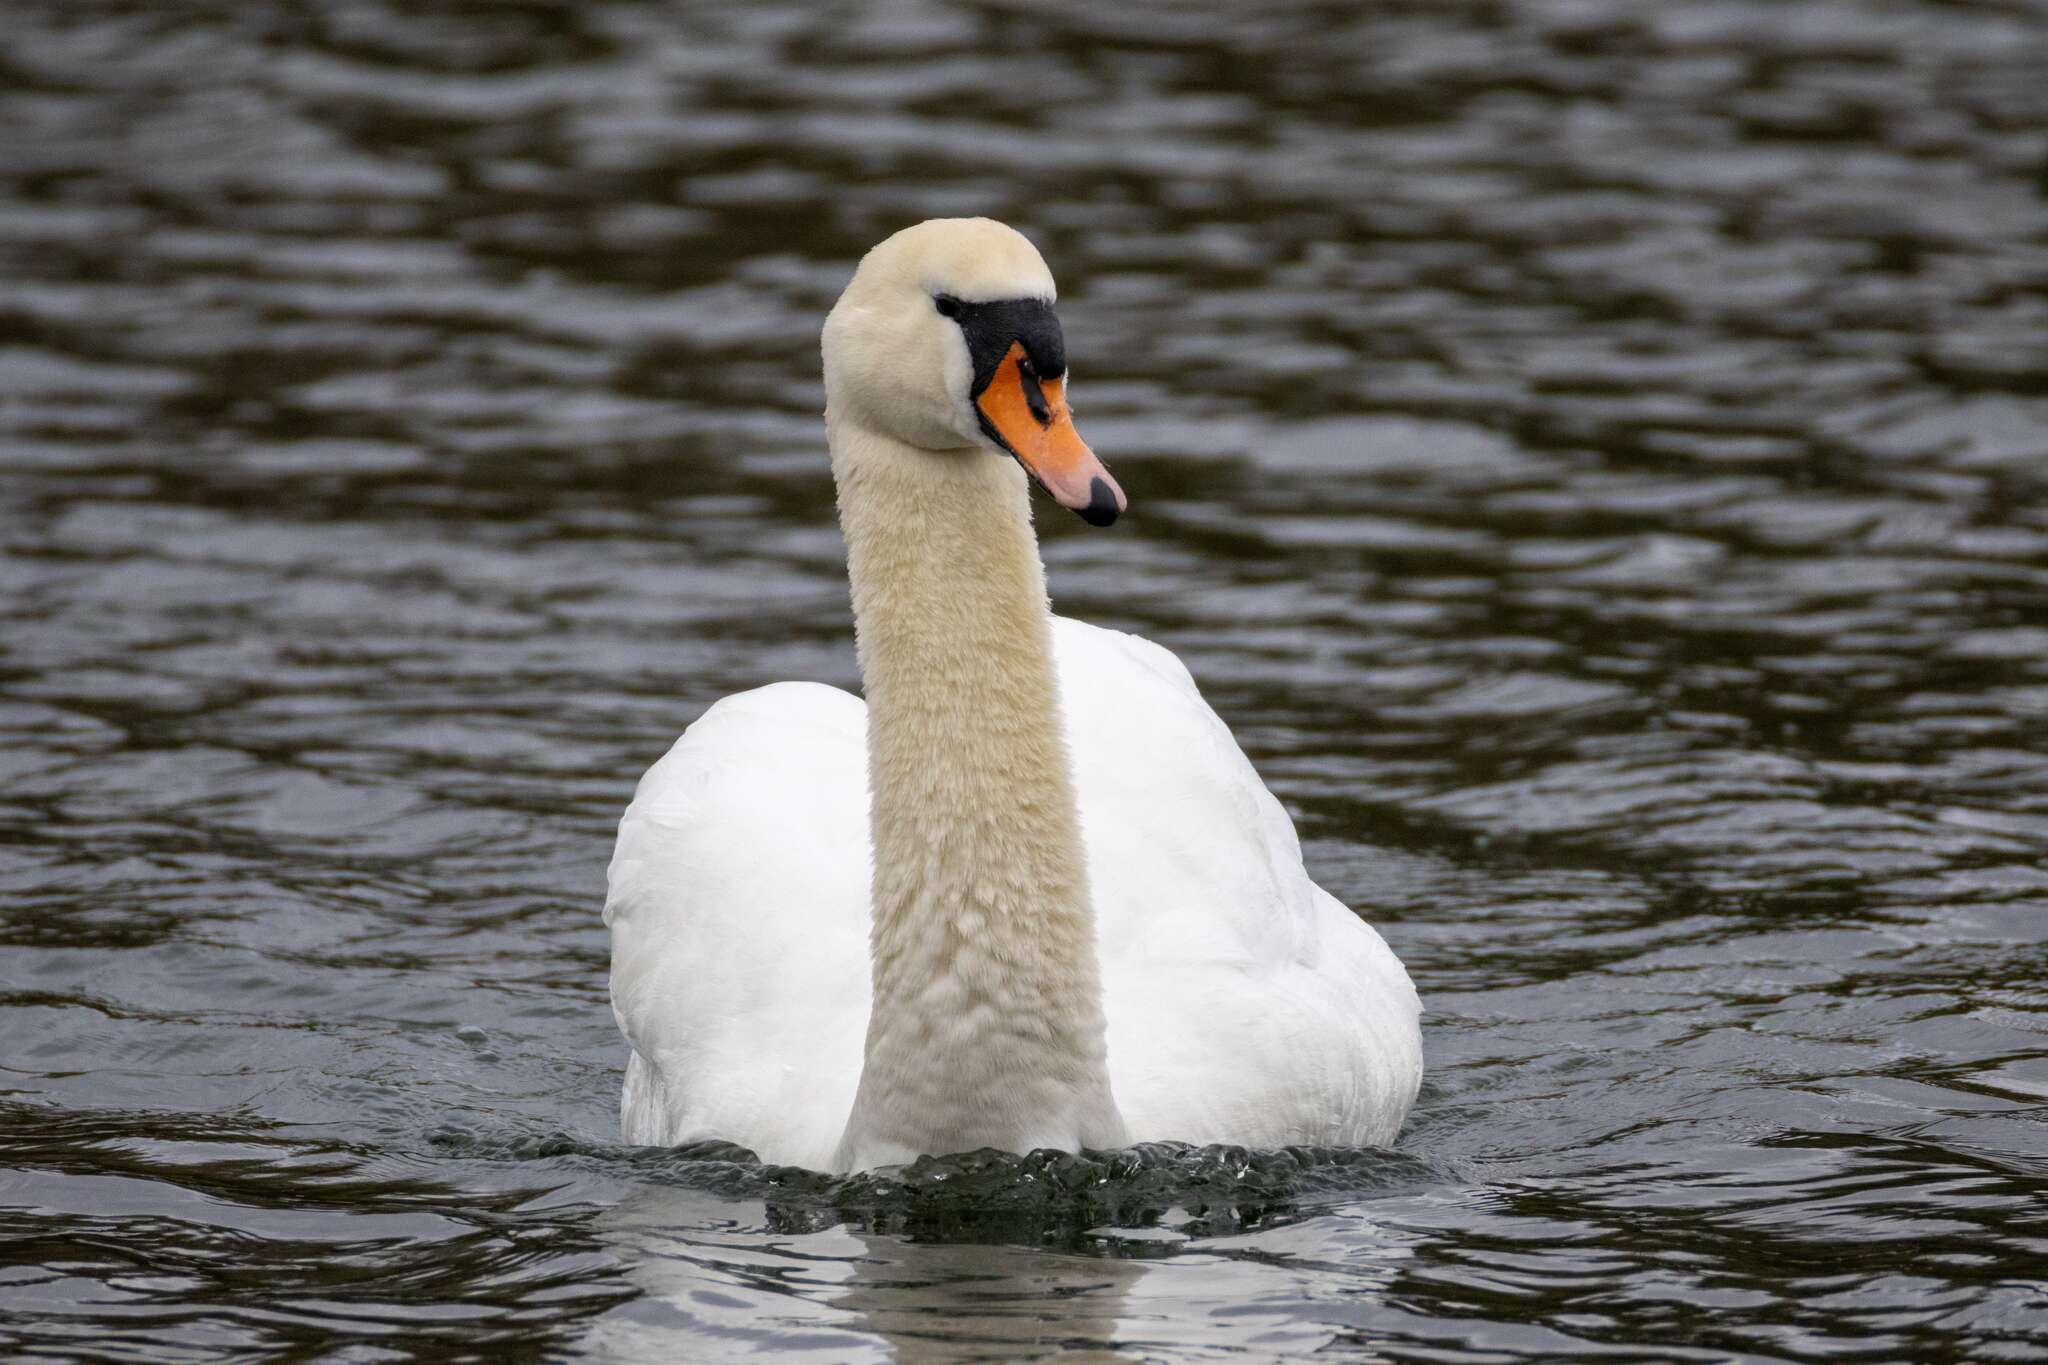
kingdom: Animalia
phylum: Chordata
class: Aves
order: Anseriformes
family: Anatidae
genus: Cygnus
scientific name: Cygnus olor
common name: Mute swan
